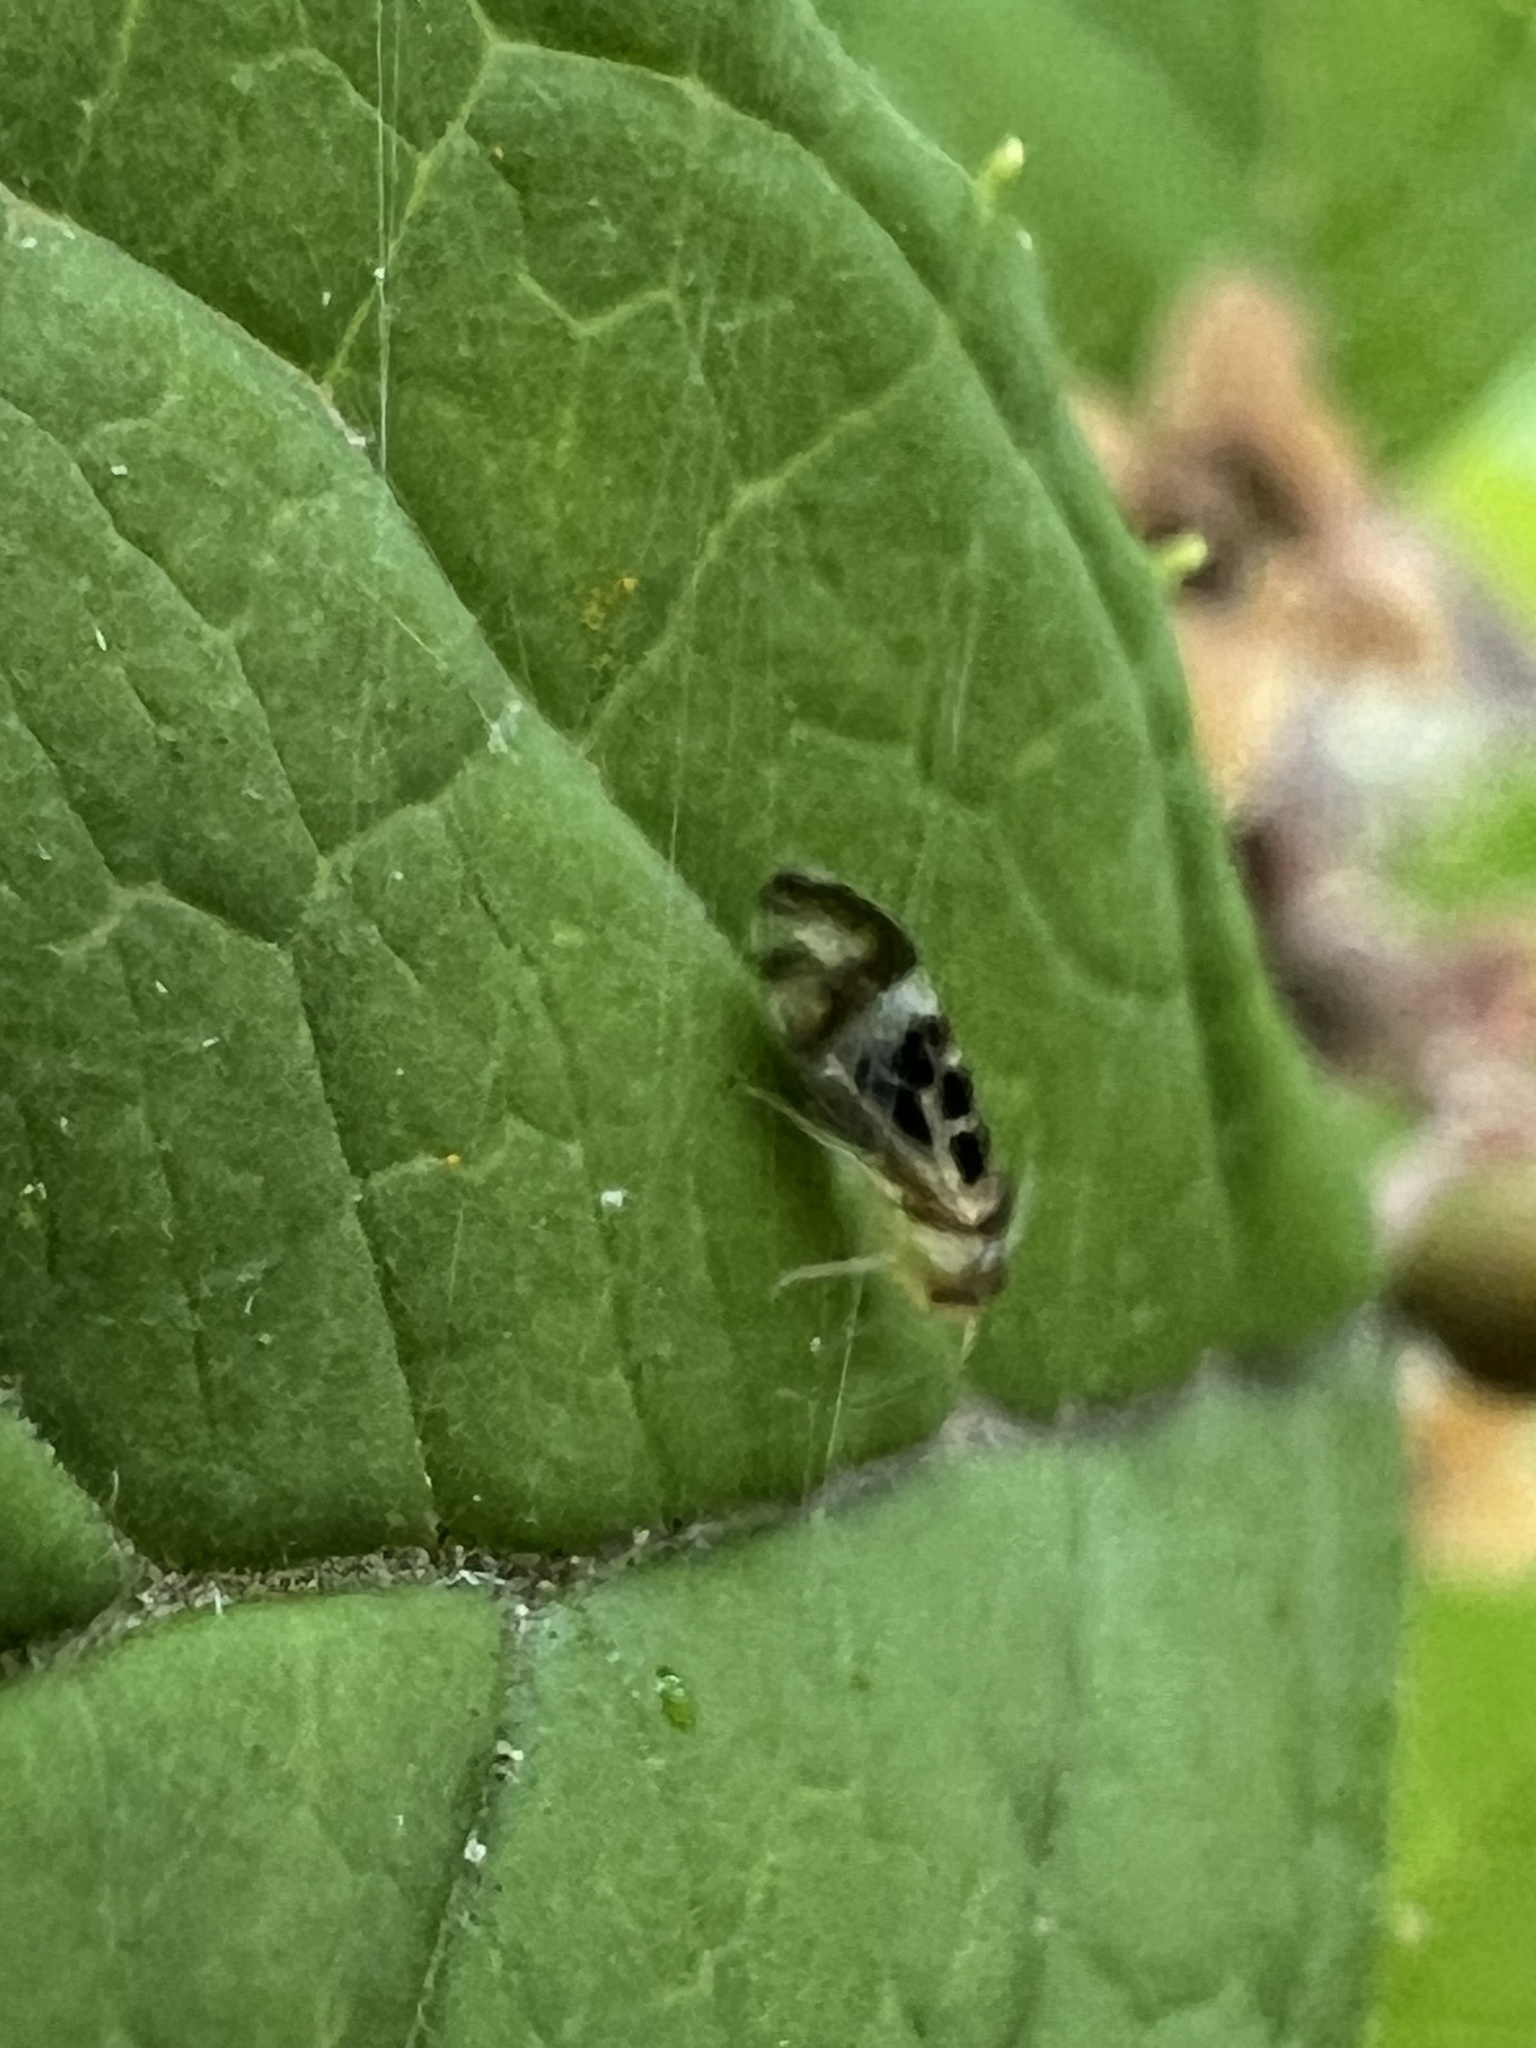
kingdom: Animalia
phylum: Arthropoda
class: Insecta
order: Psocodea
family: Stenopsocidae
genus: Graphopsocus
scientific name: Graphopsocus cruciatus
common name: Lizard bark louse
